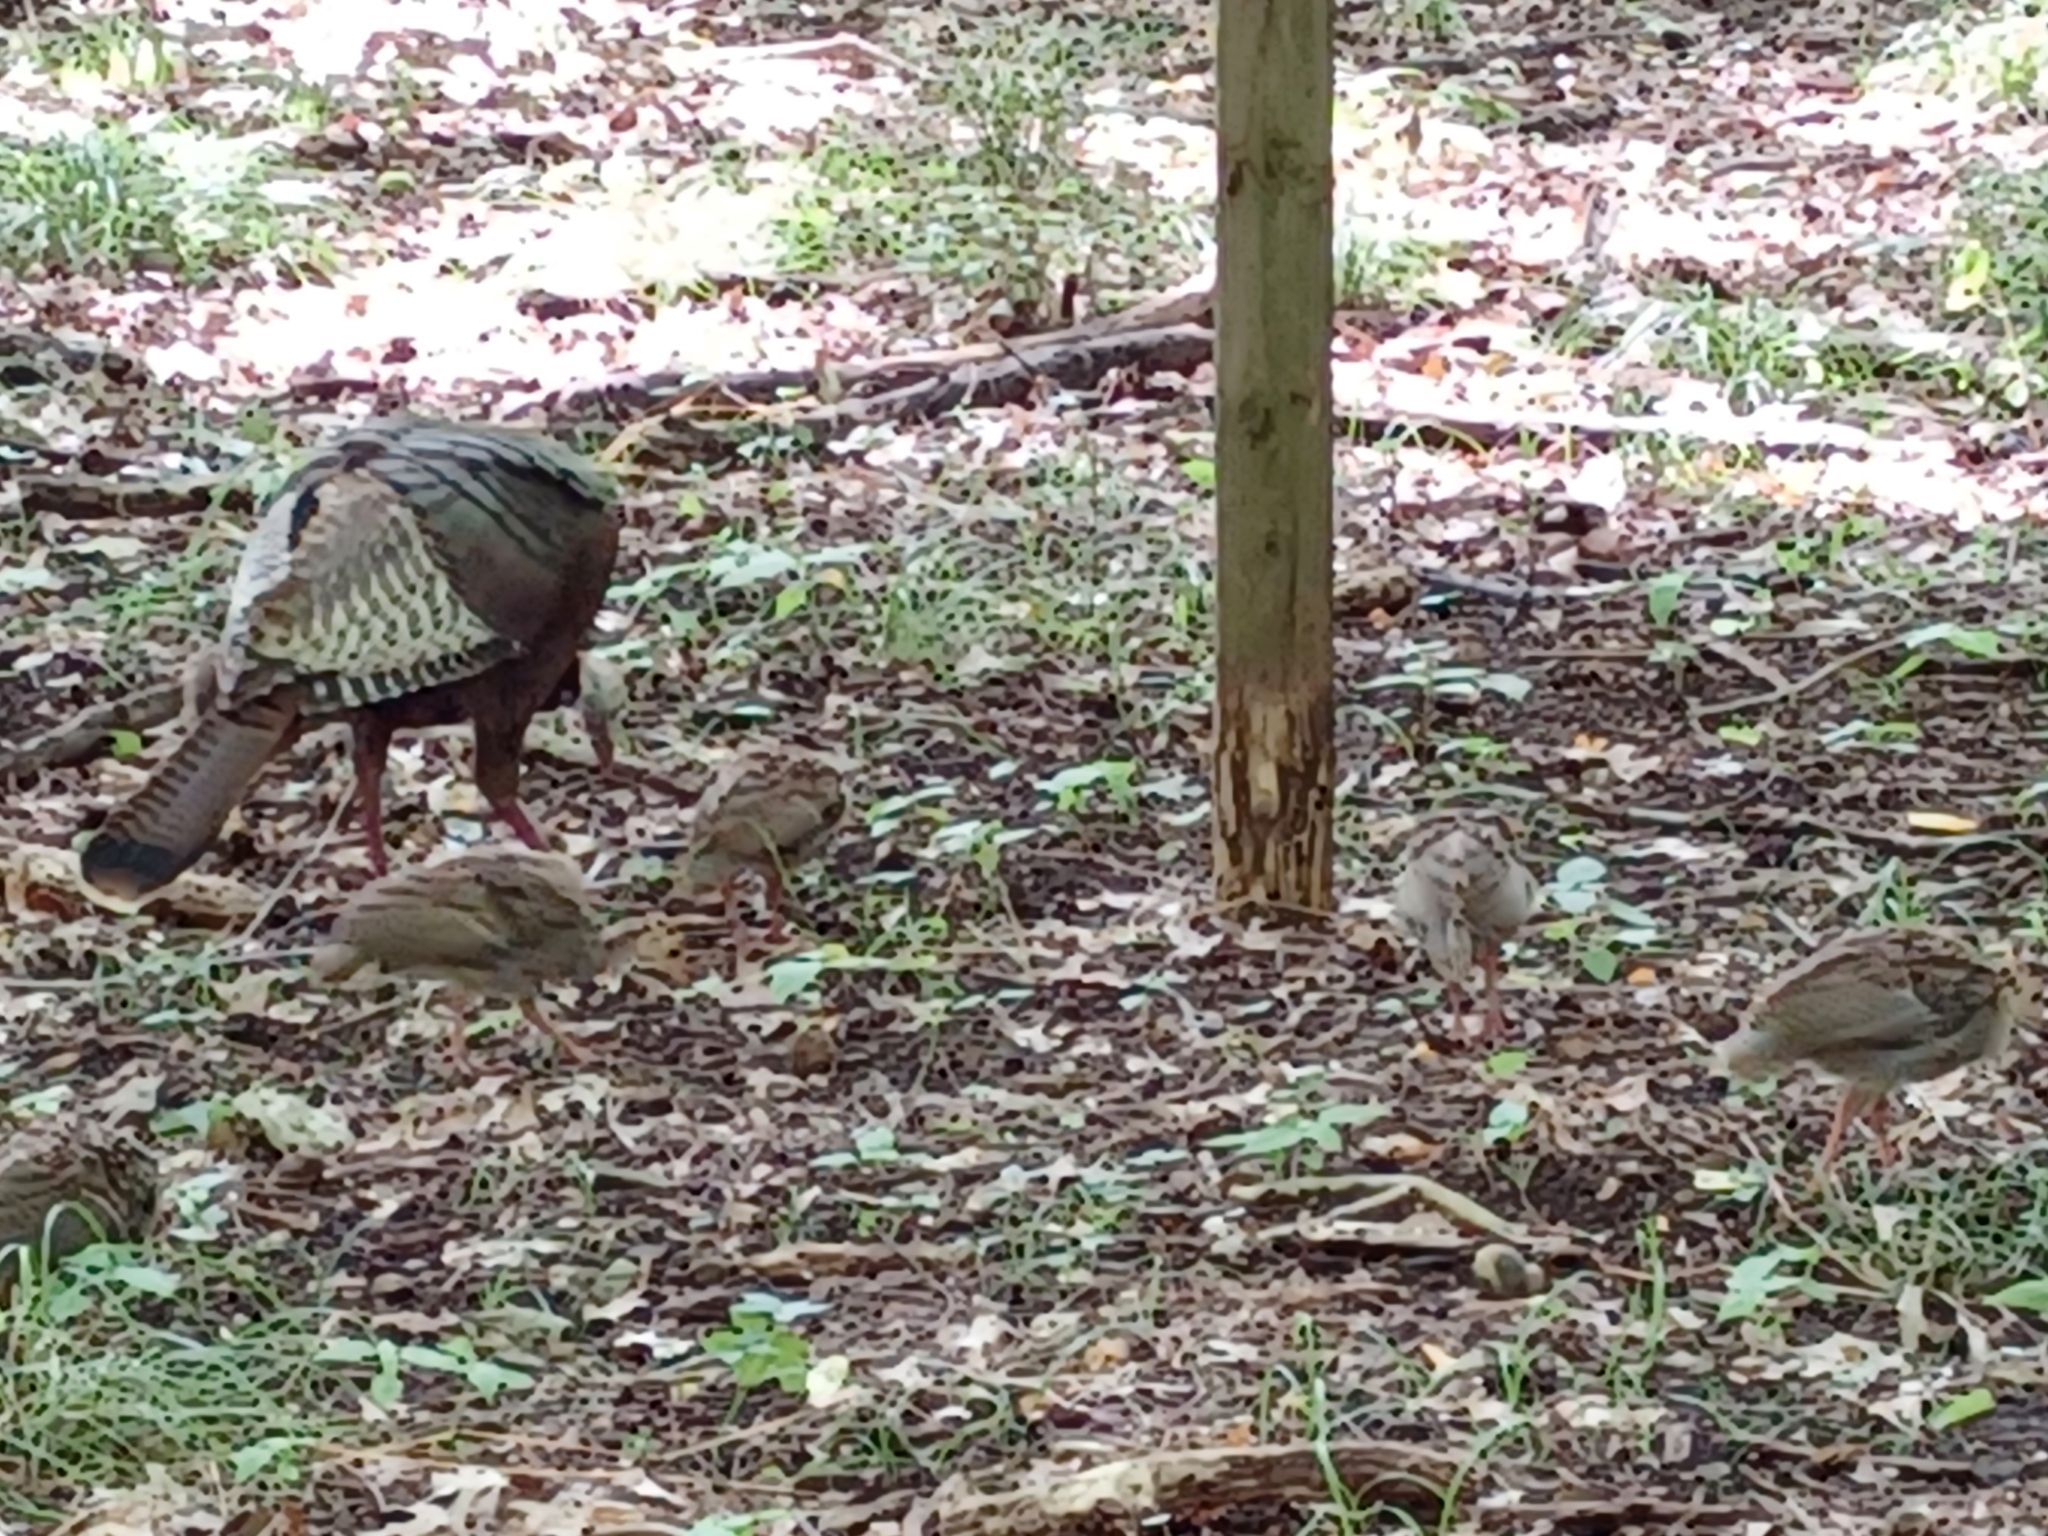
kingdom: Animalia
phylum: Chordata
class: Aves
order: Galliformes
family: Phasianidae
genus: Meleagris
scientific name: Meleagris gallopavo
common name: Wild turkey
